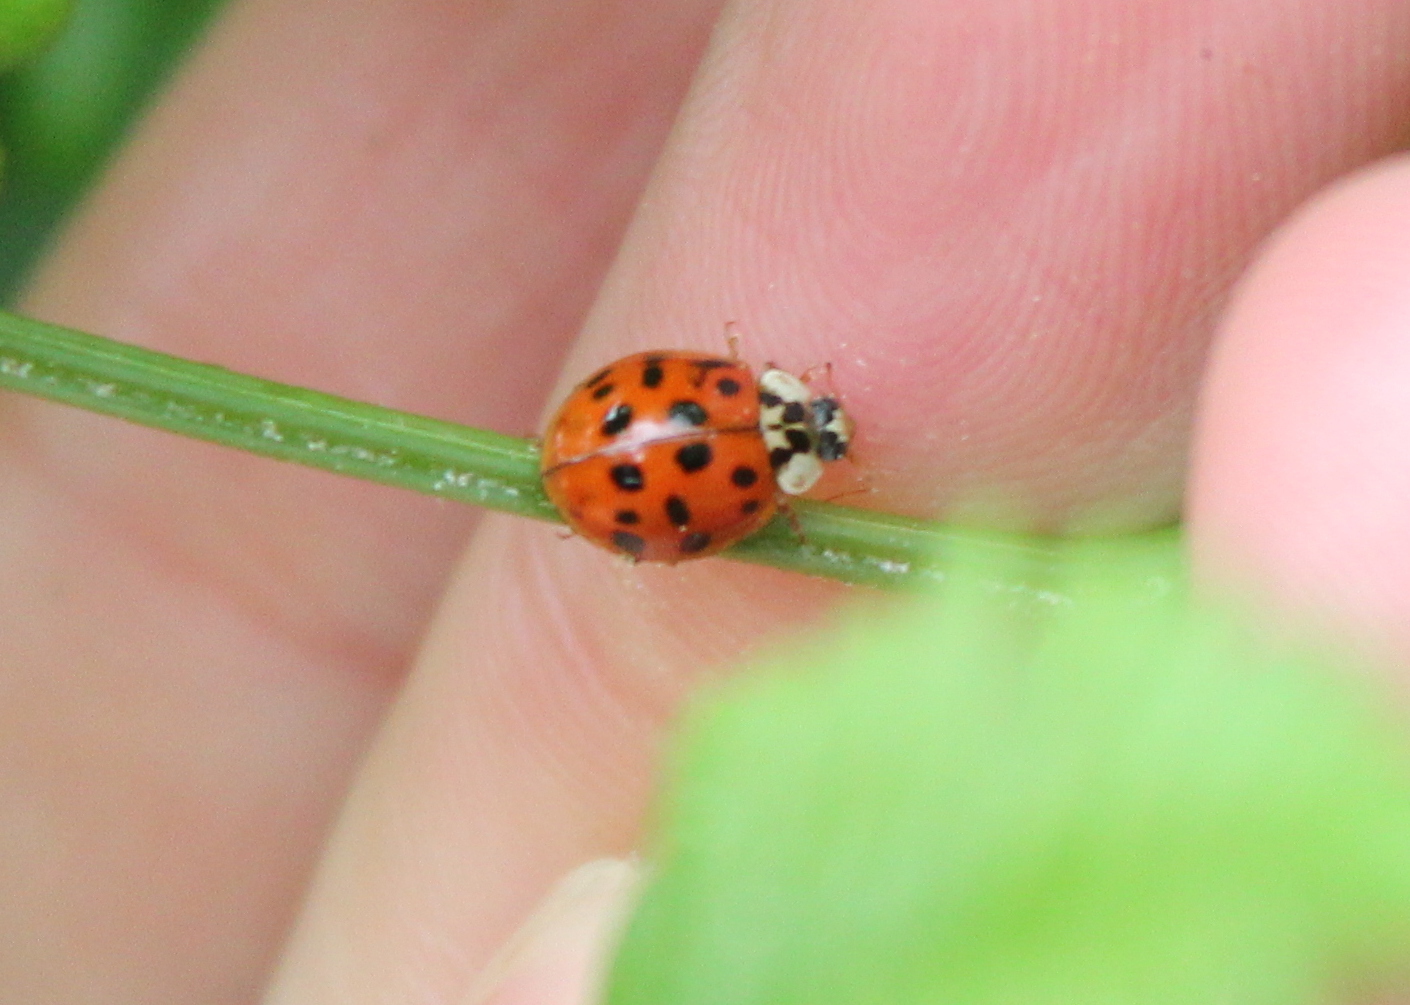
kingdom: Animalia
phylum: Arthropoda
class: Insecta
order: Coleoptera
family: Coccinellidae
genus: Harmonia
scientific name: Harmonia axyridis
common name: Harlequin ladybird
